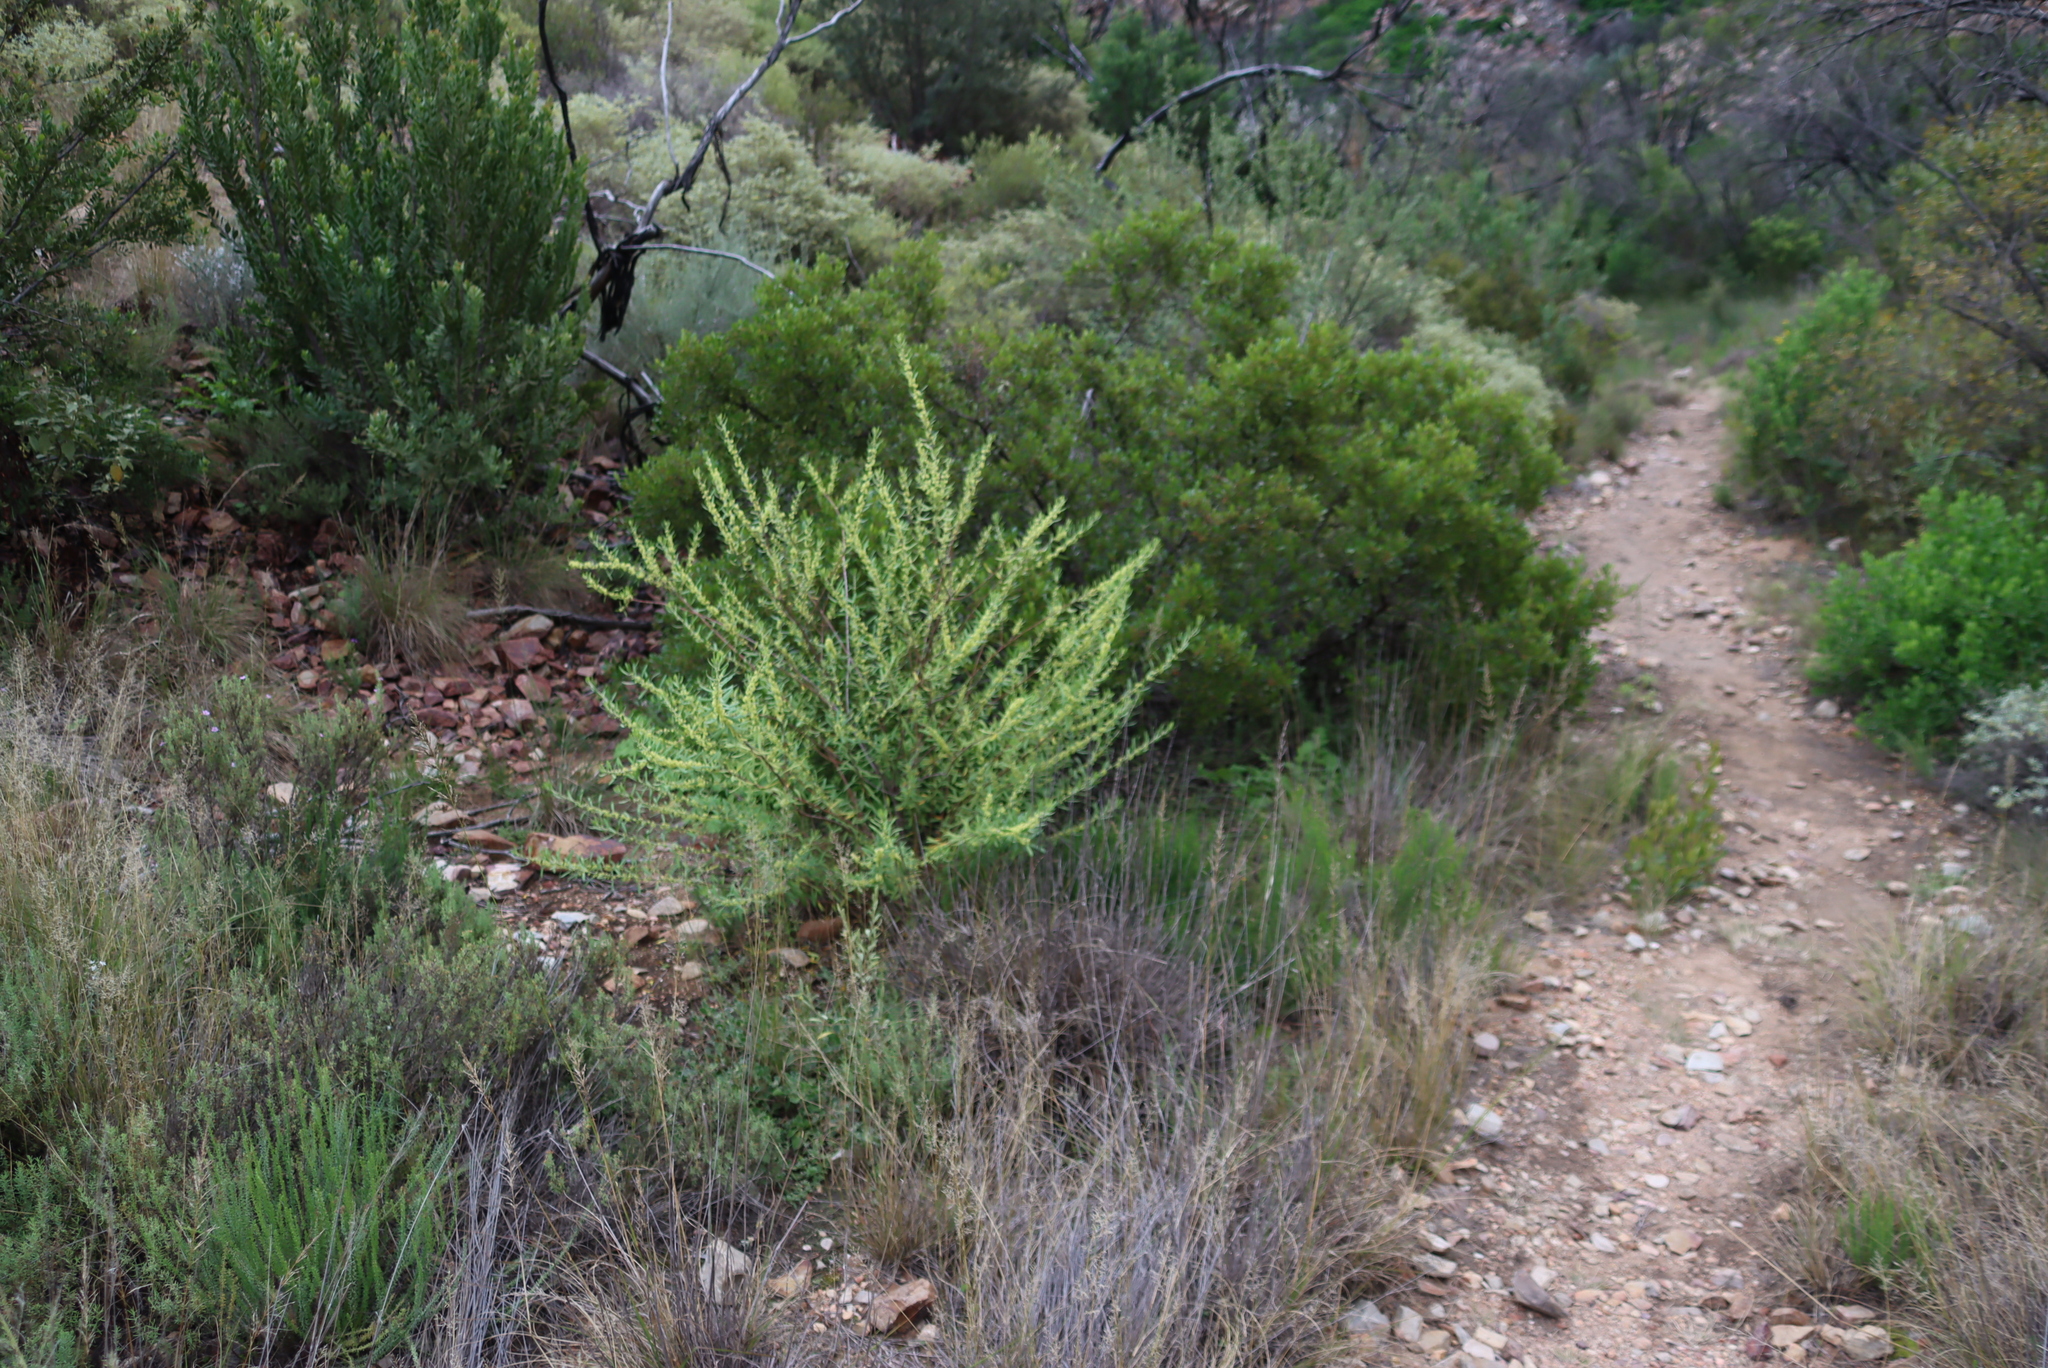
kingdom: Plantae
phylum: Tracheophyta
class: Magnoliopsida
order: Malpighiales
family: Peraceae
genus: Clutia
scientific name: Clutia daphnoides
